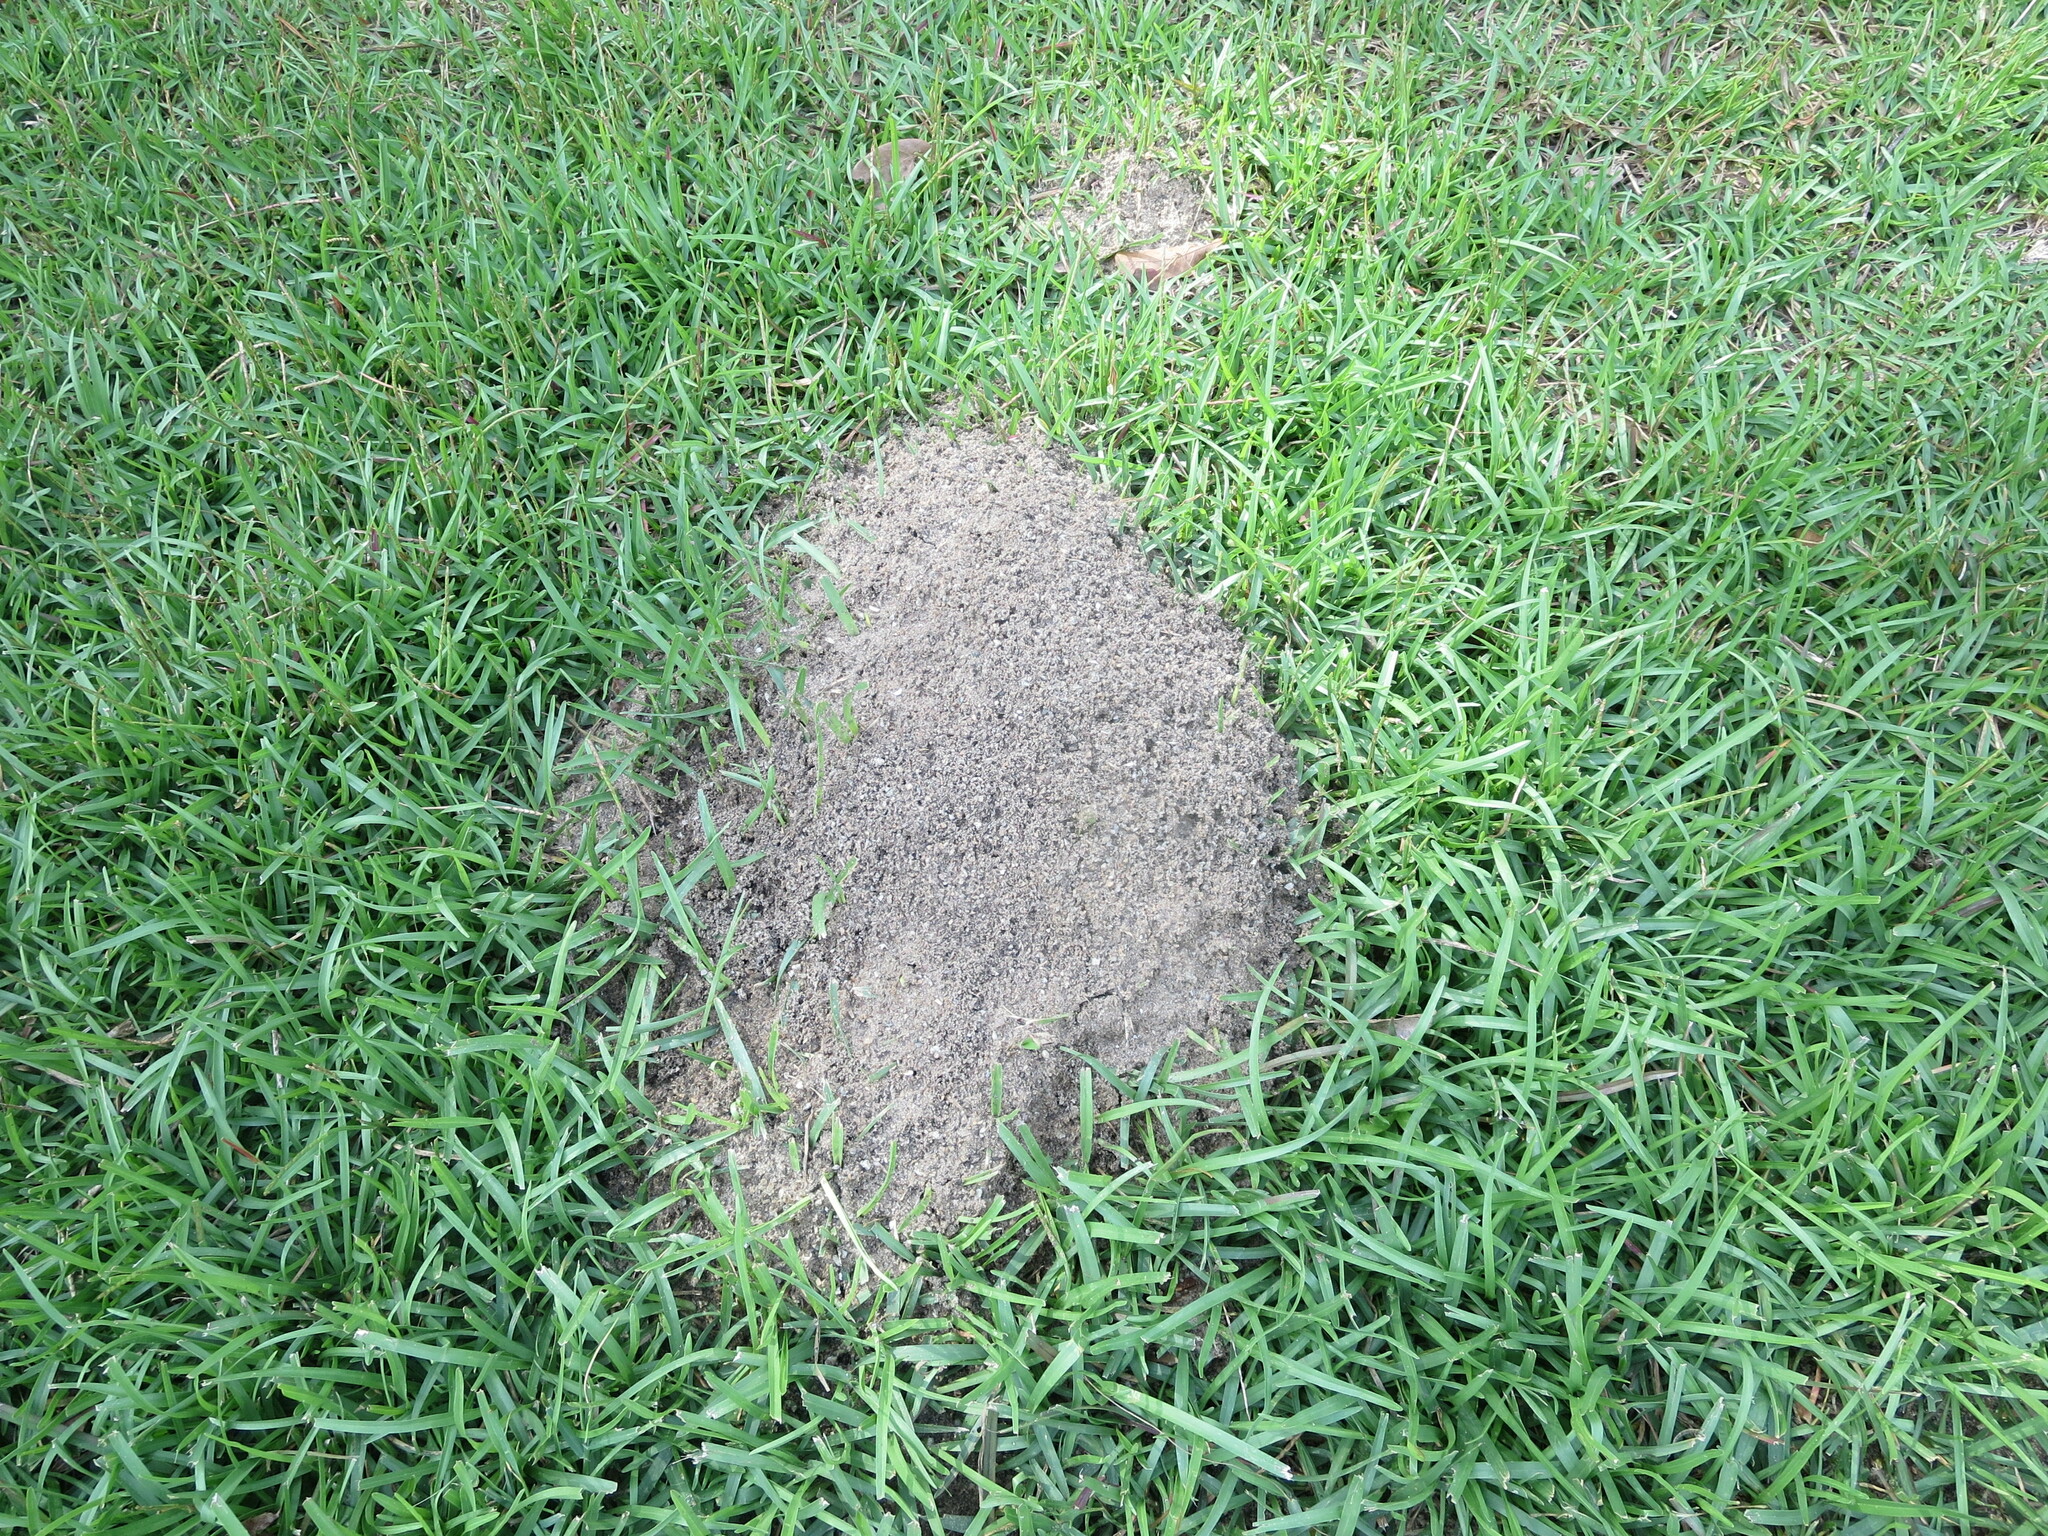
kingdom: Animalia
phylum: Arthropoda
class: Insecta
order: Hymenoptera
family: Formicidae
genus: Solenopsis
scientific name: Solenopsis invicta
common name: Red imported fire ant
